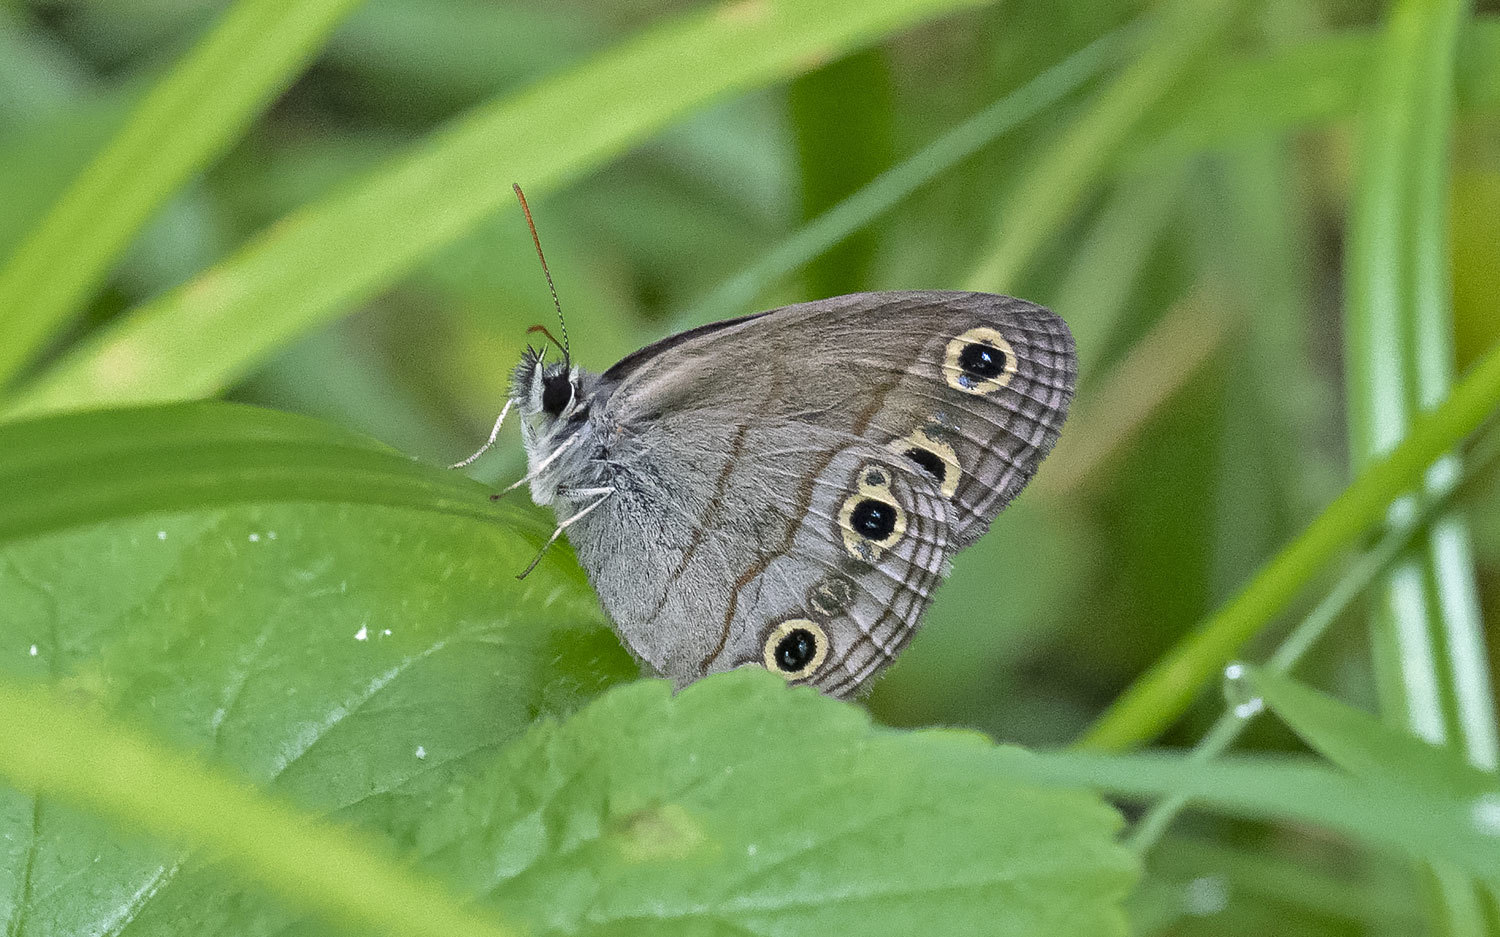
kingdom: Animalia
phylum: Arthropoda
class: Insecta
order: Lepidoptera
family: Nymphalidae
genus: Euptychia
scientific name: Euptychia cymela
